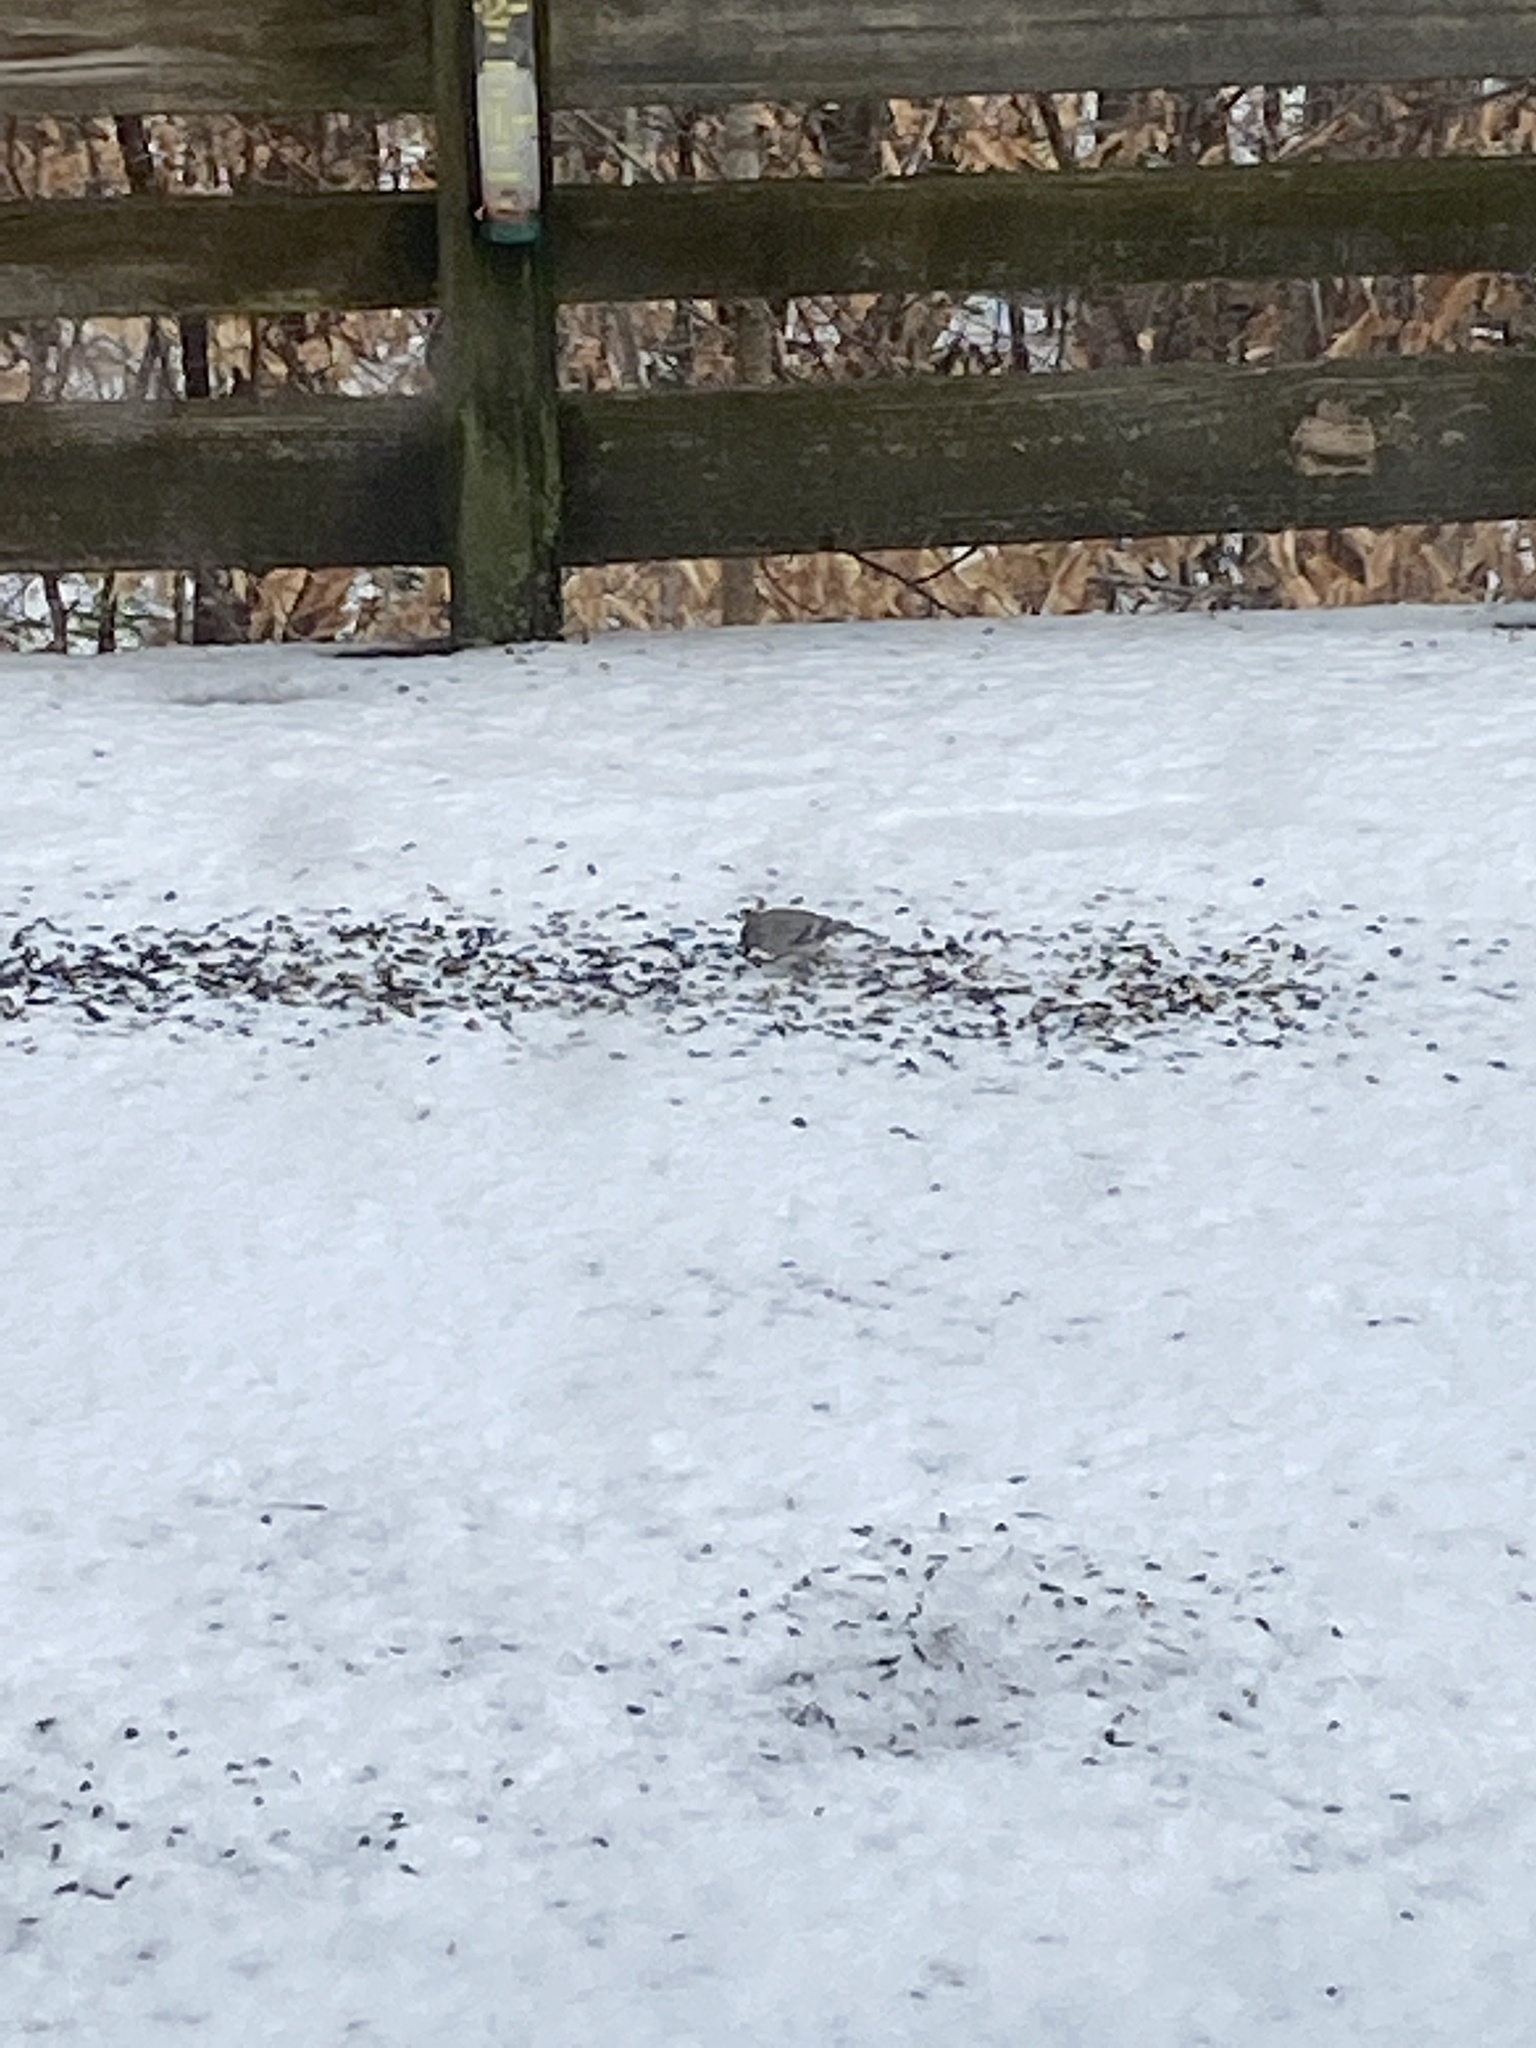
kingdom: Animalia
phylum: Chordata
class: Aves
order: Passeriformes
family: Fringillidae
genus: Spinus
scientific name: Spinus tristis
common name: American goldfinch
